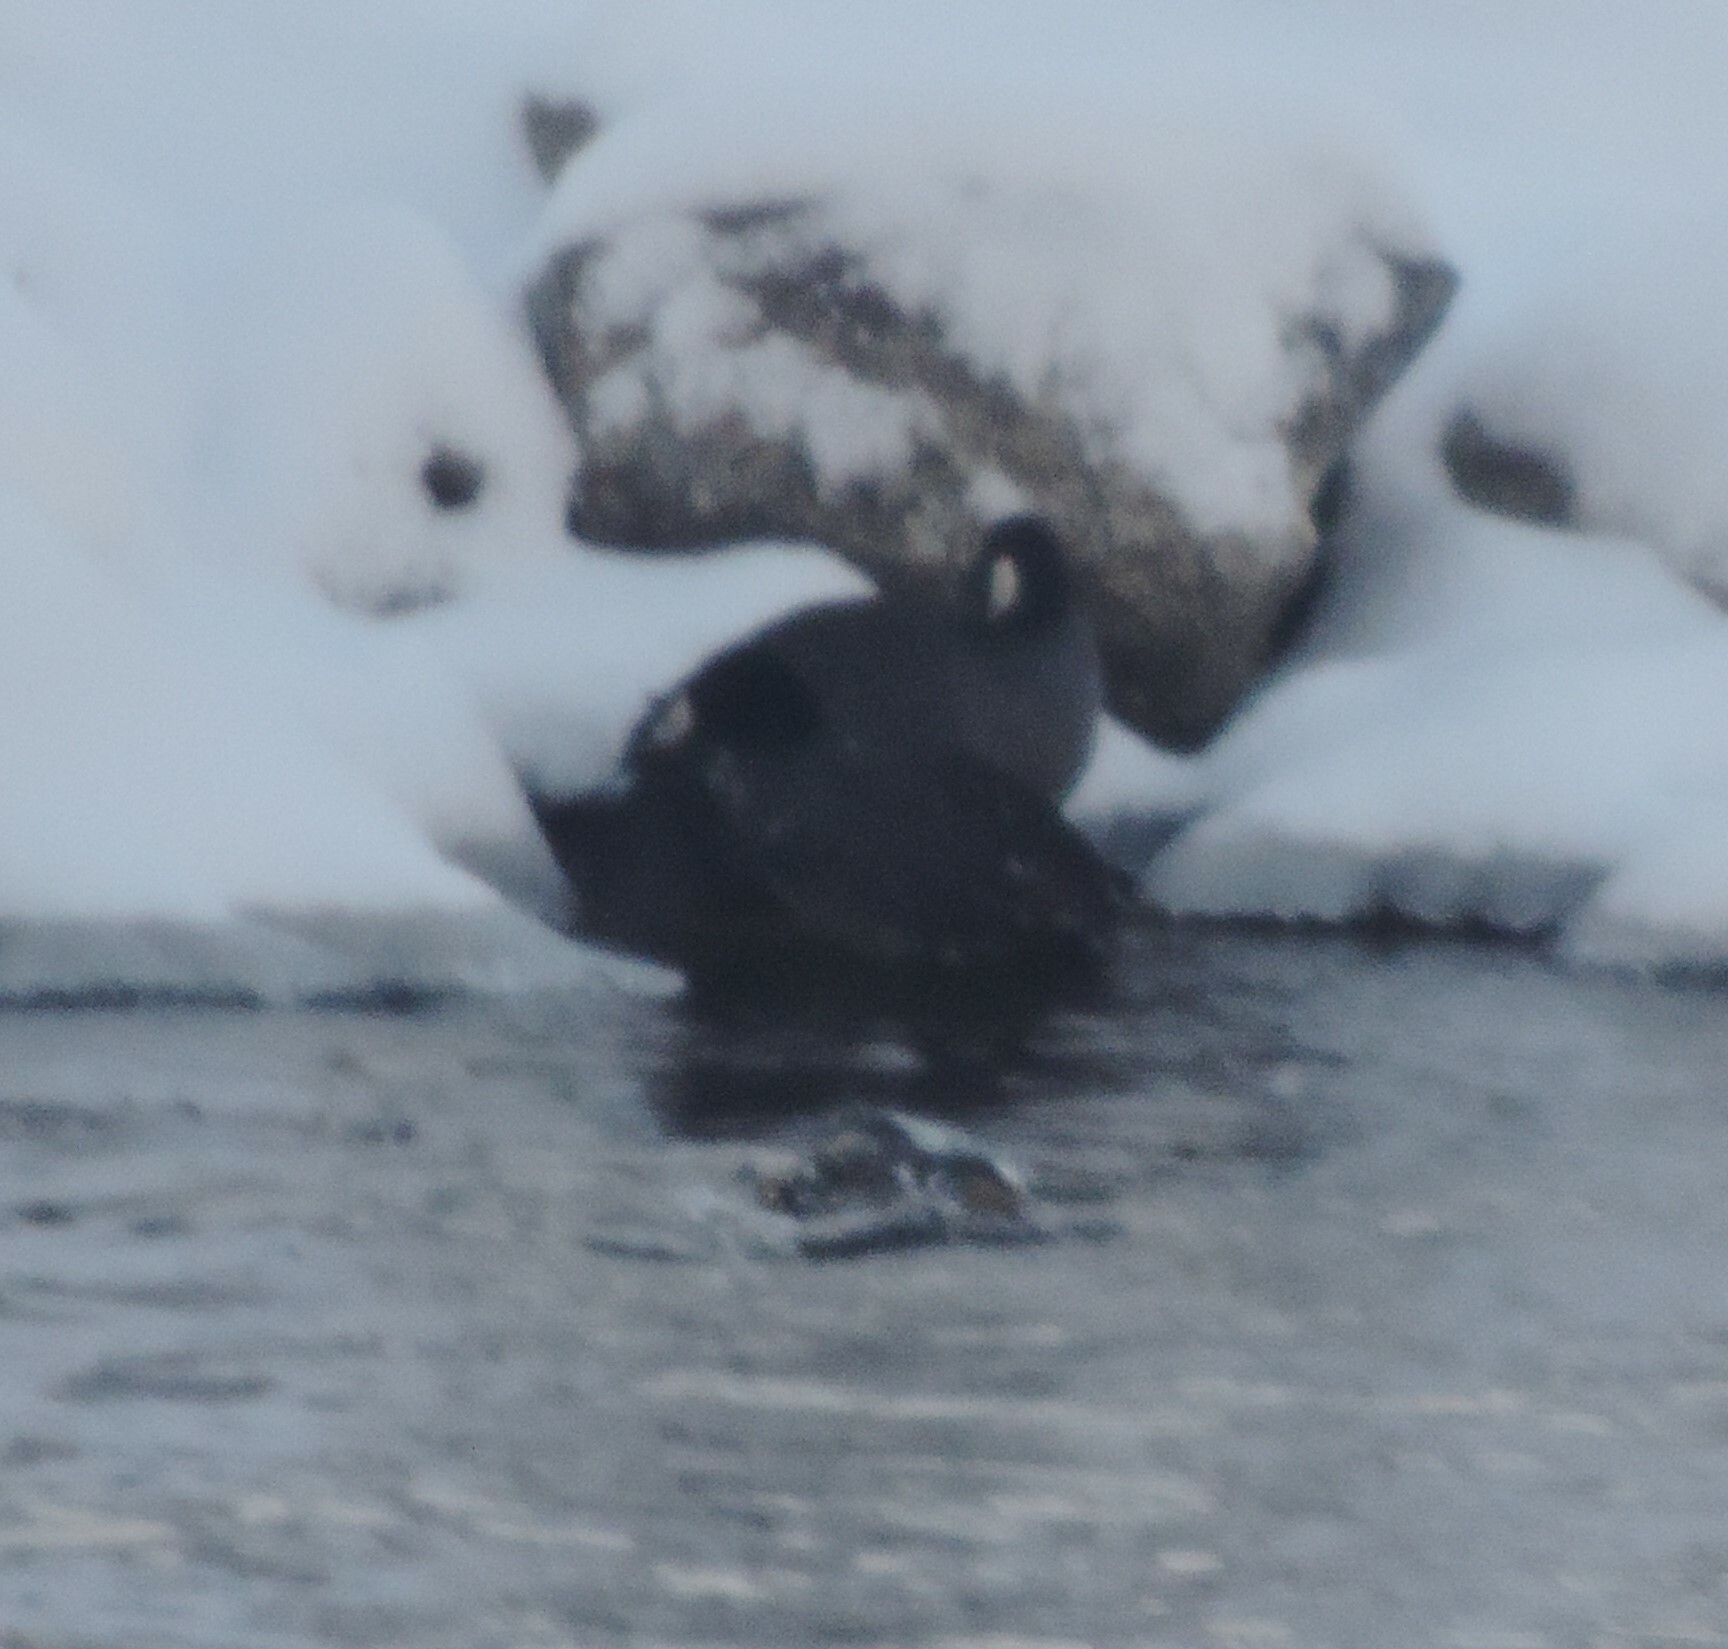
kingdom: Animalia
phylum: Chordata
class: Aves
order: Gruiformes
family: Rallidae
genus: Fulica
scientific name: Fulica americana
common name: American coot
